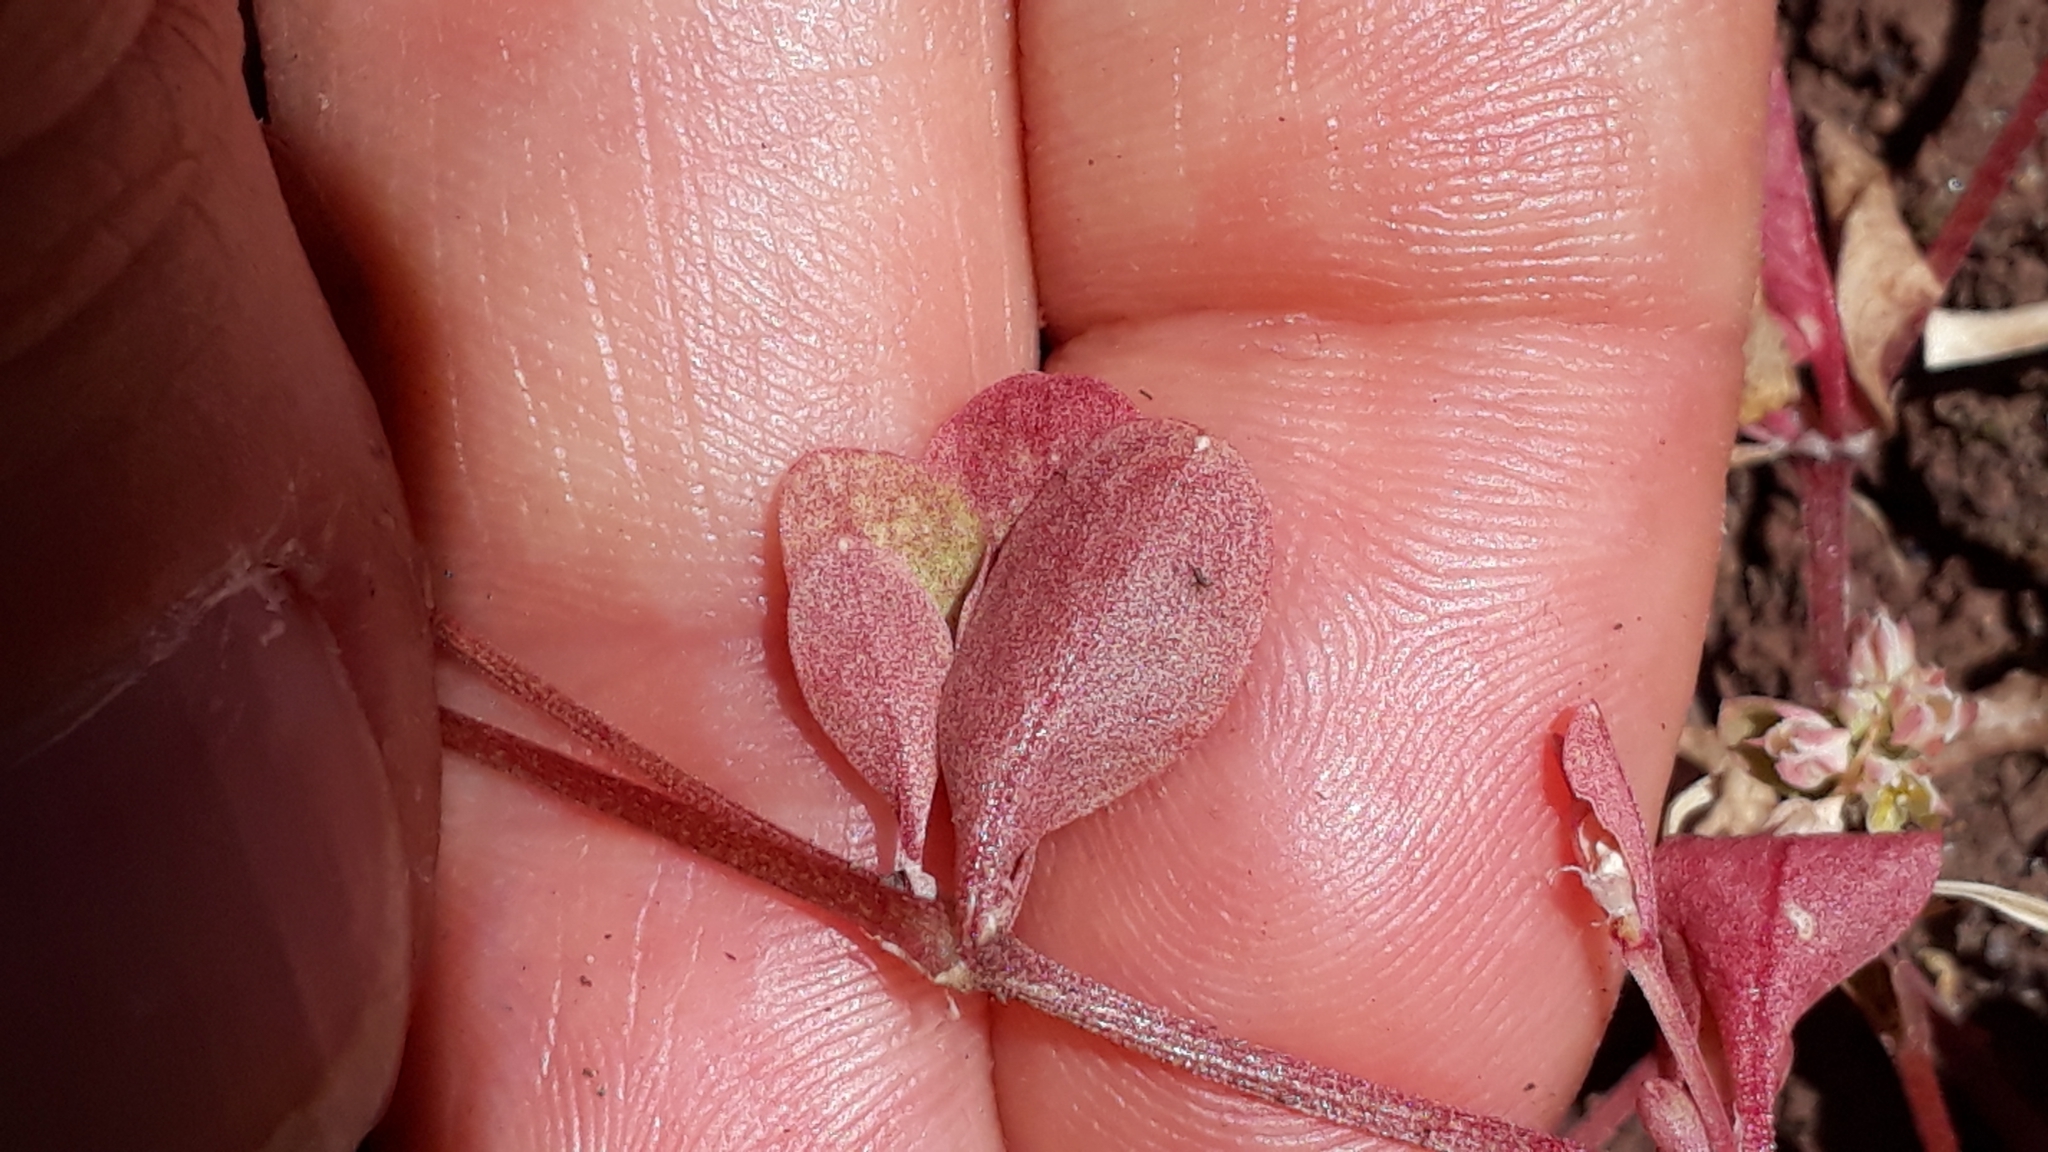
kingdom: Plantae
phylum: Tracheophyta
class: Magnoliopsida
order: Caryophyllales
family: Caryophyllaceae
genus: Polycarpon
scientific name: Polycarpon tetraphyllum
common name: Four-leaved all-seed
